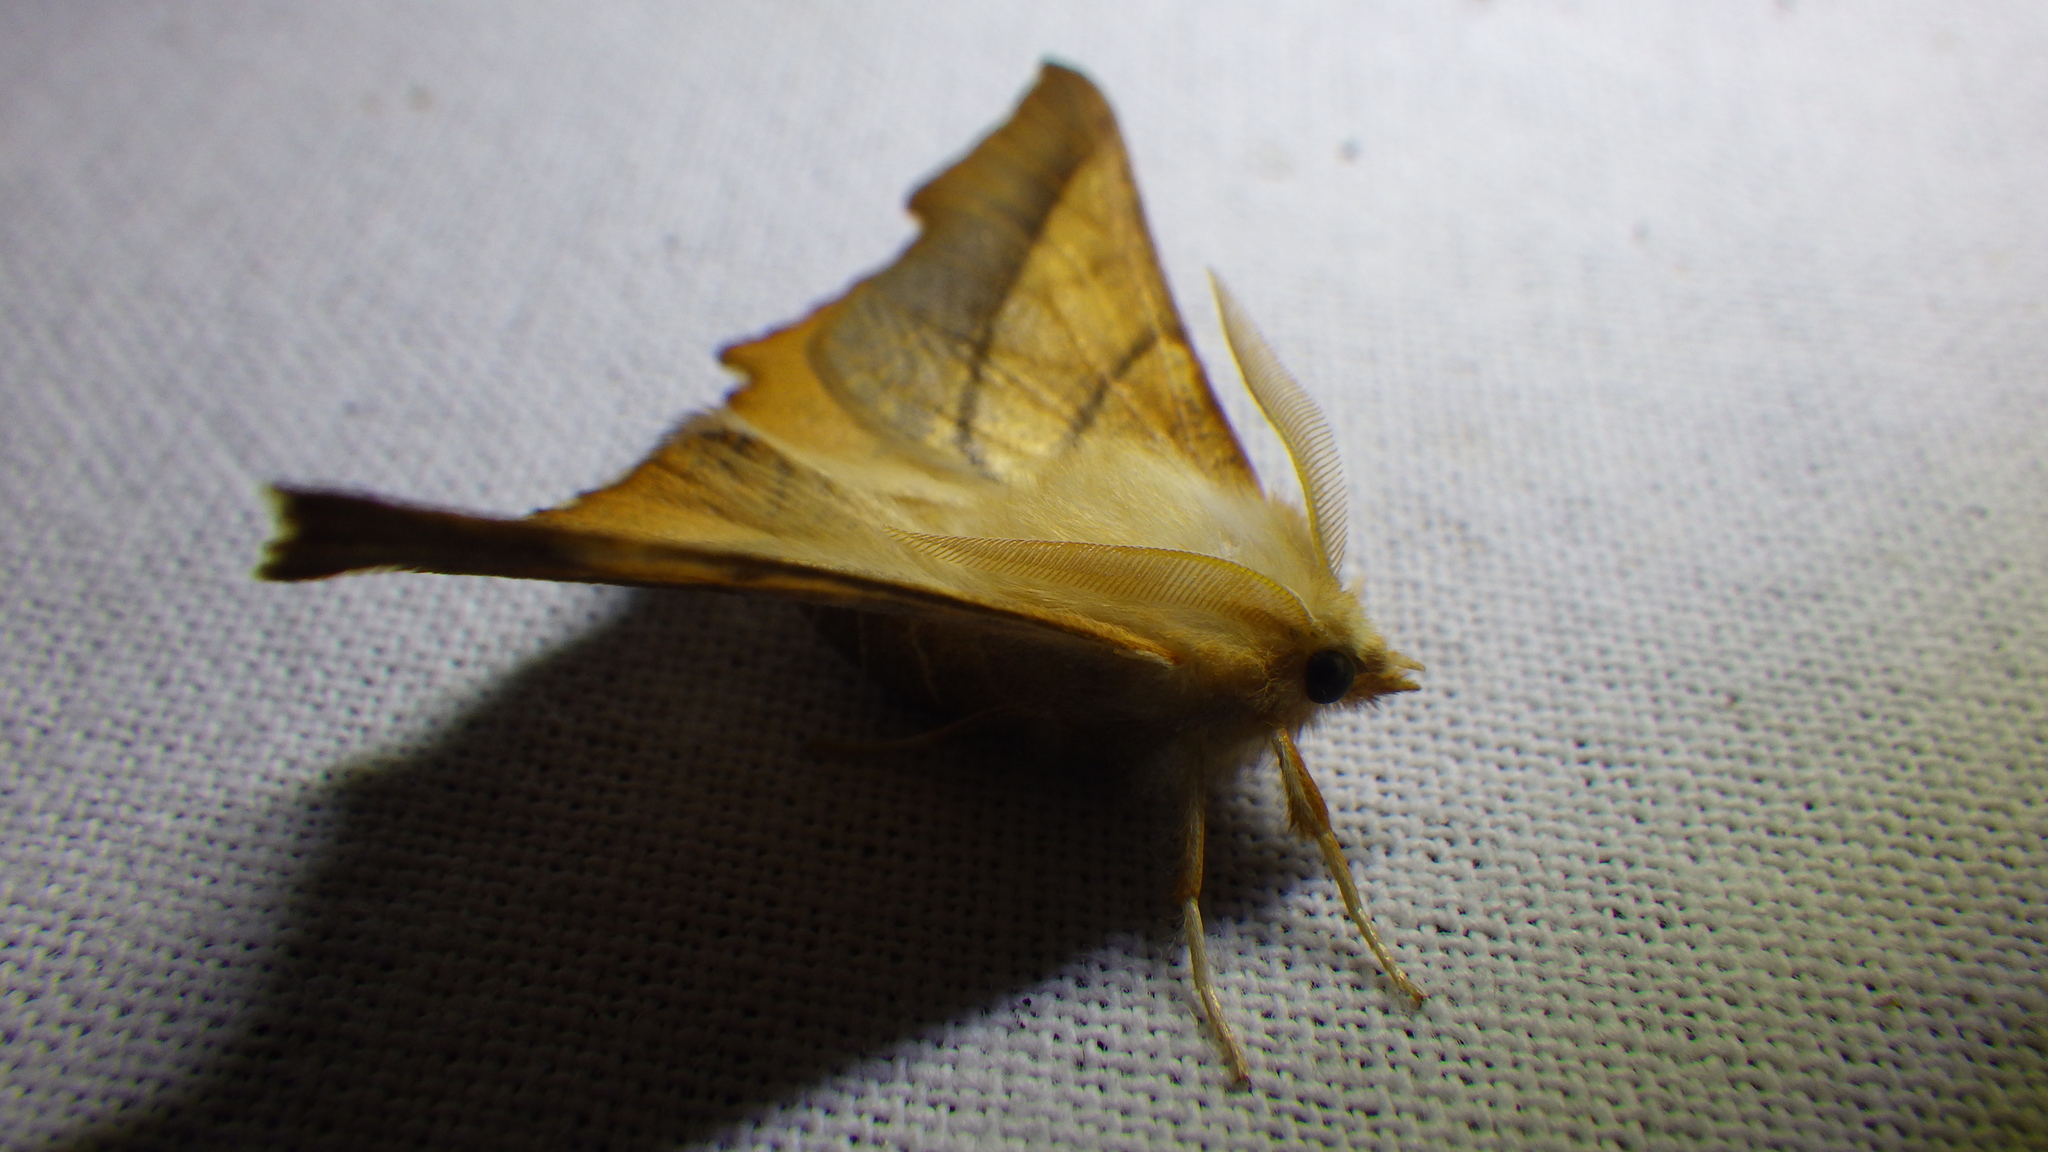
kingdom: Animalia
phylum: Arthropoda
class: Insecta
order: Lepidoptera
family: Geometridae
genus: Ennomos
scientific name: Ennomos fuscantaria
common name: Dusky thorn
